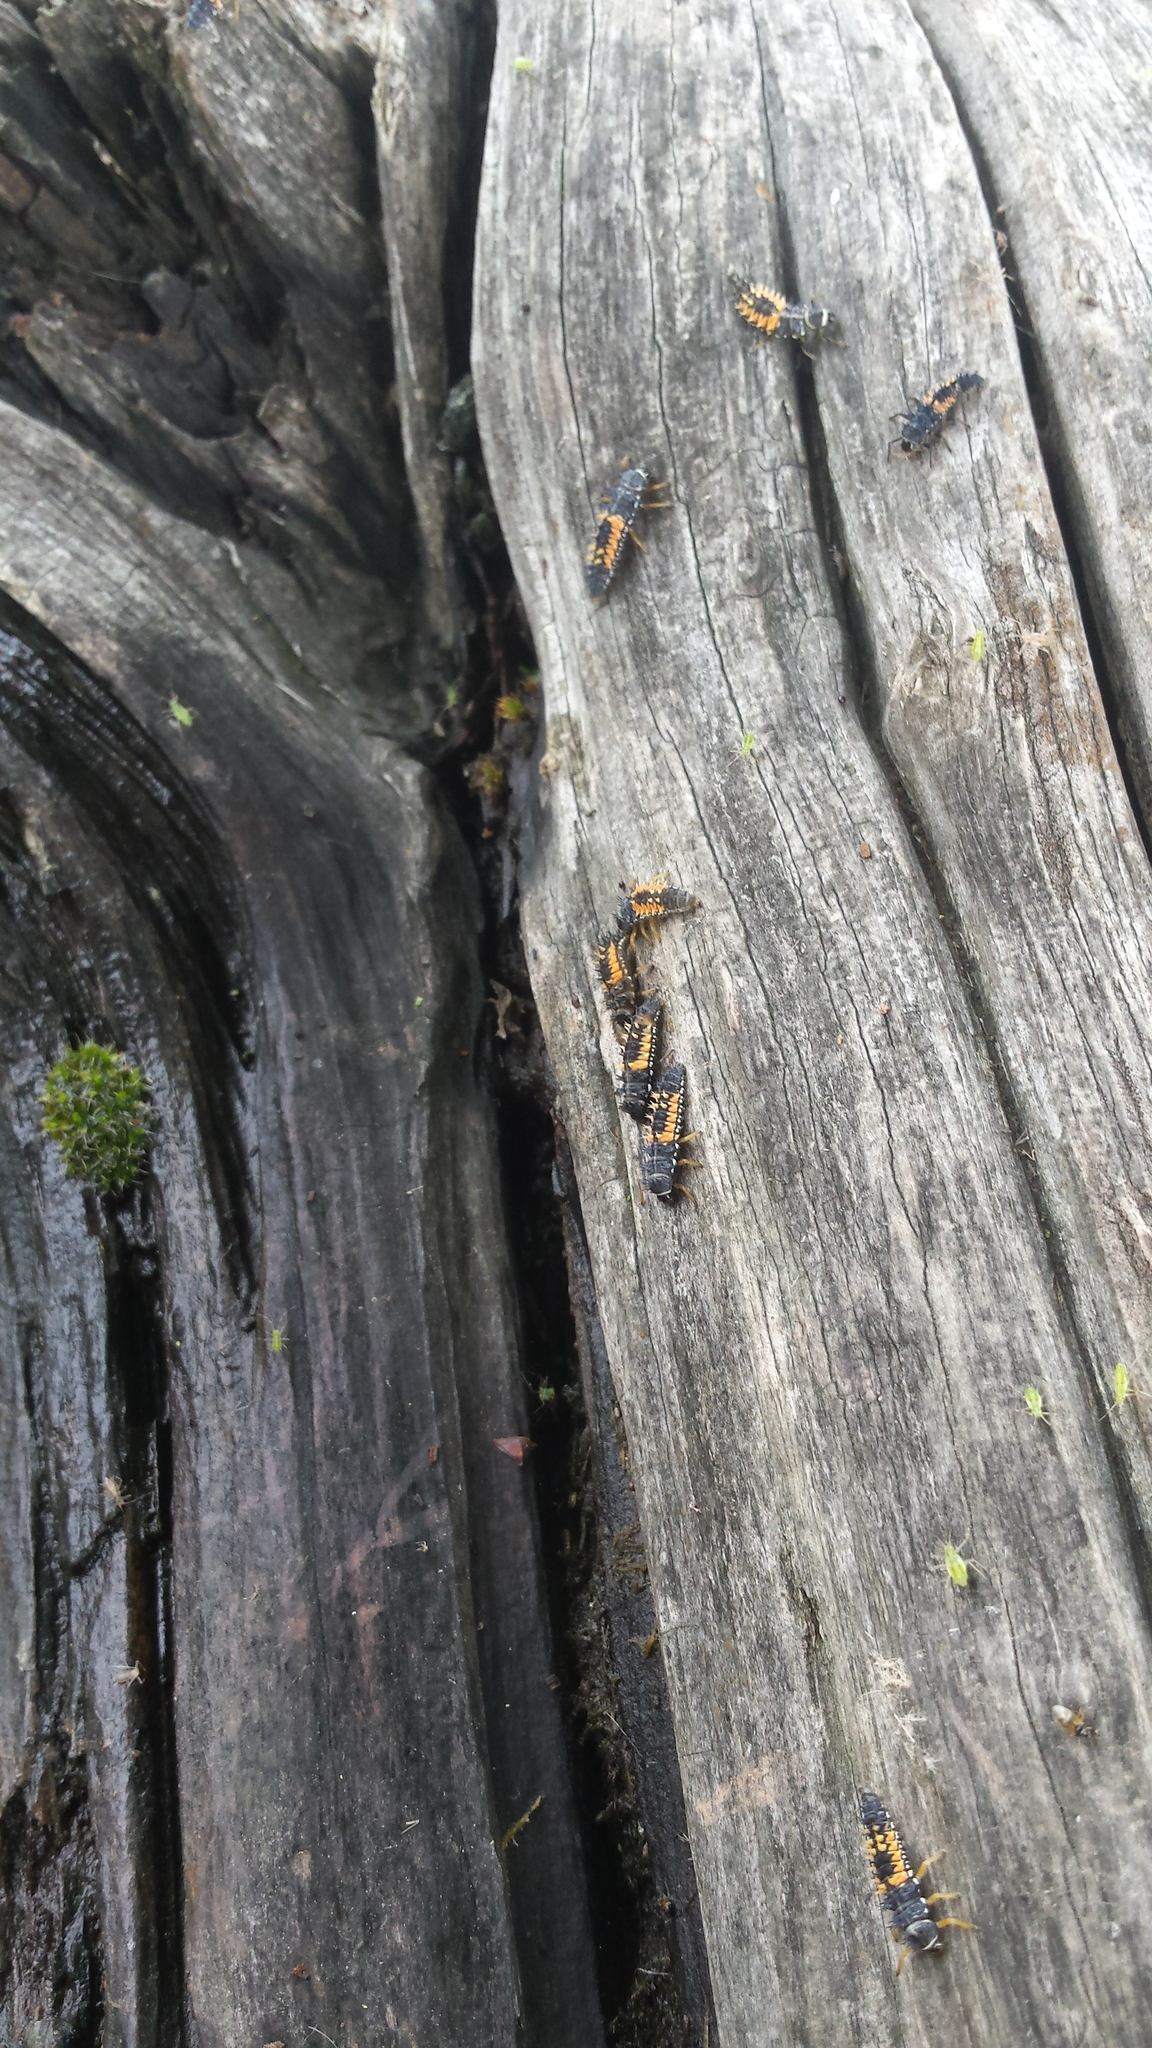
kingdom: Animalia
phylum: Arthropoda
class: Insecta
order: Coleoptera
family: Coccinellidae
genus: Harmonia
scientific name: Harmonia axyridis
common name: Harlequin ladybird
